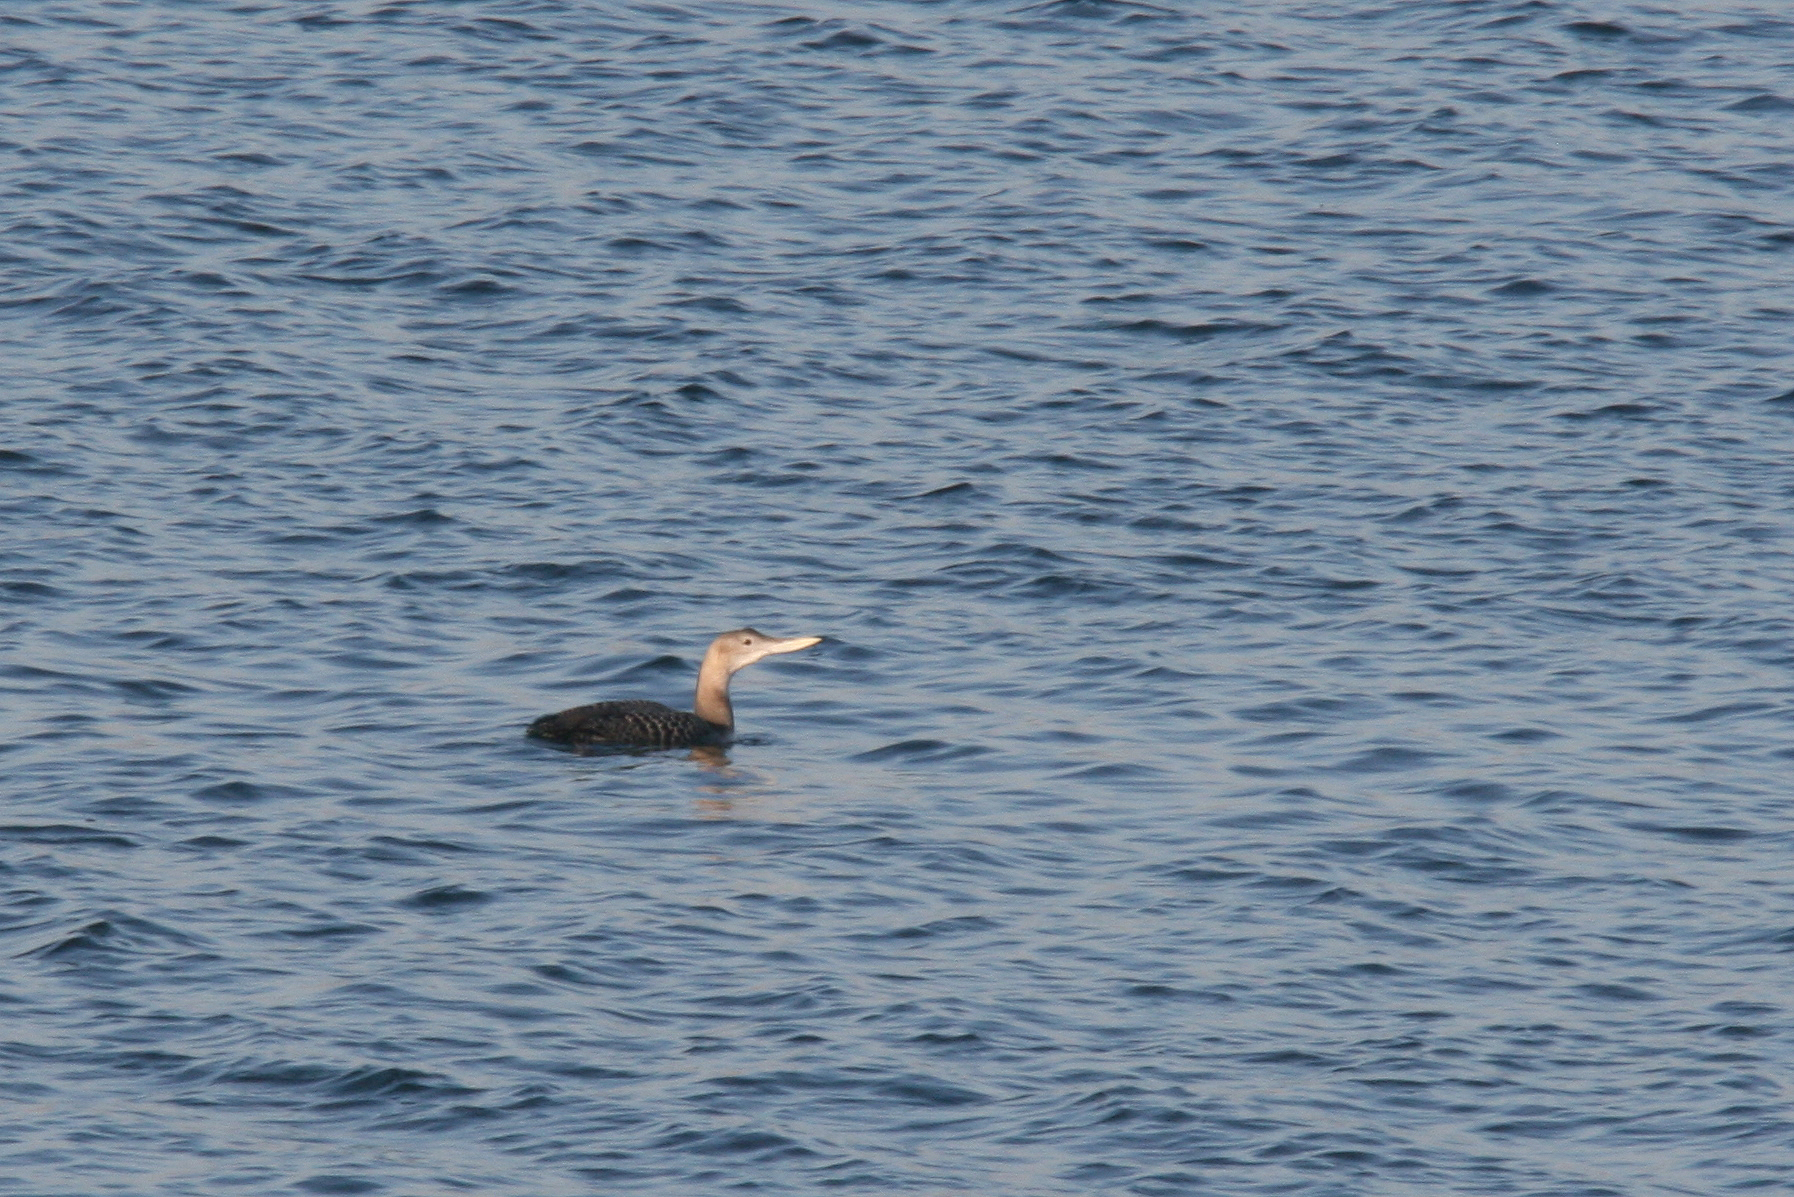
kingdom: Animalia
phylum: Chordata
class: Aves
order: Gaviiformes
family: Gaviidae
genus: Gavia
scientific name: Gavia adamsii
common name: Yellow-billed loon
